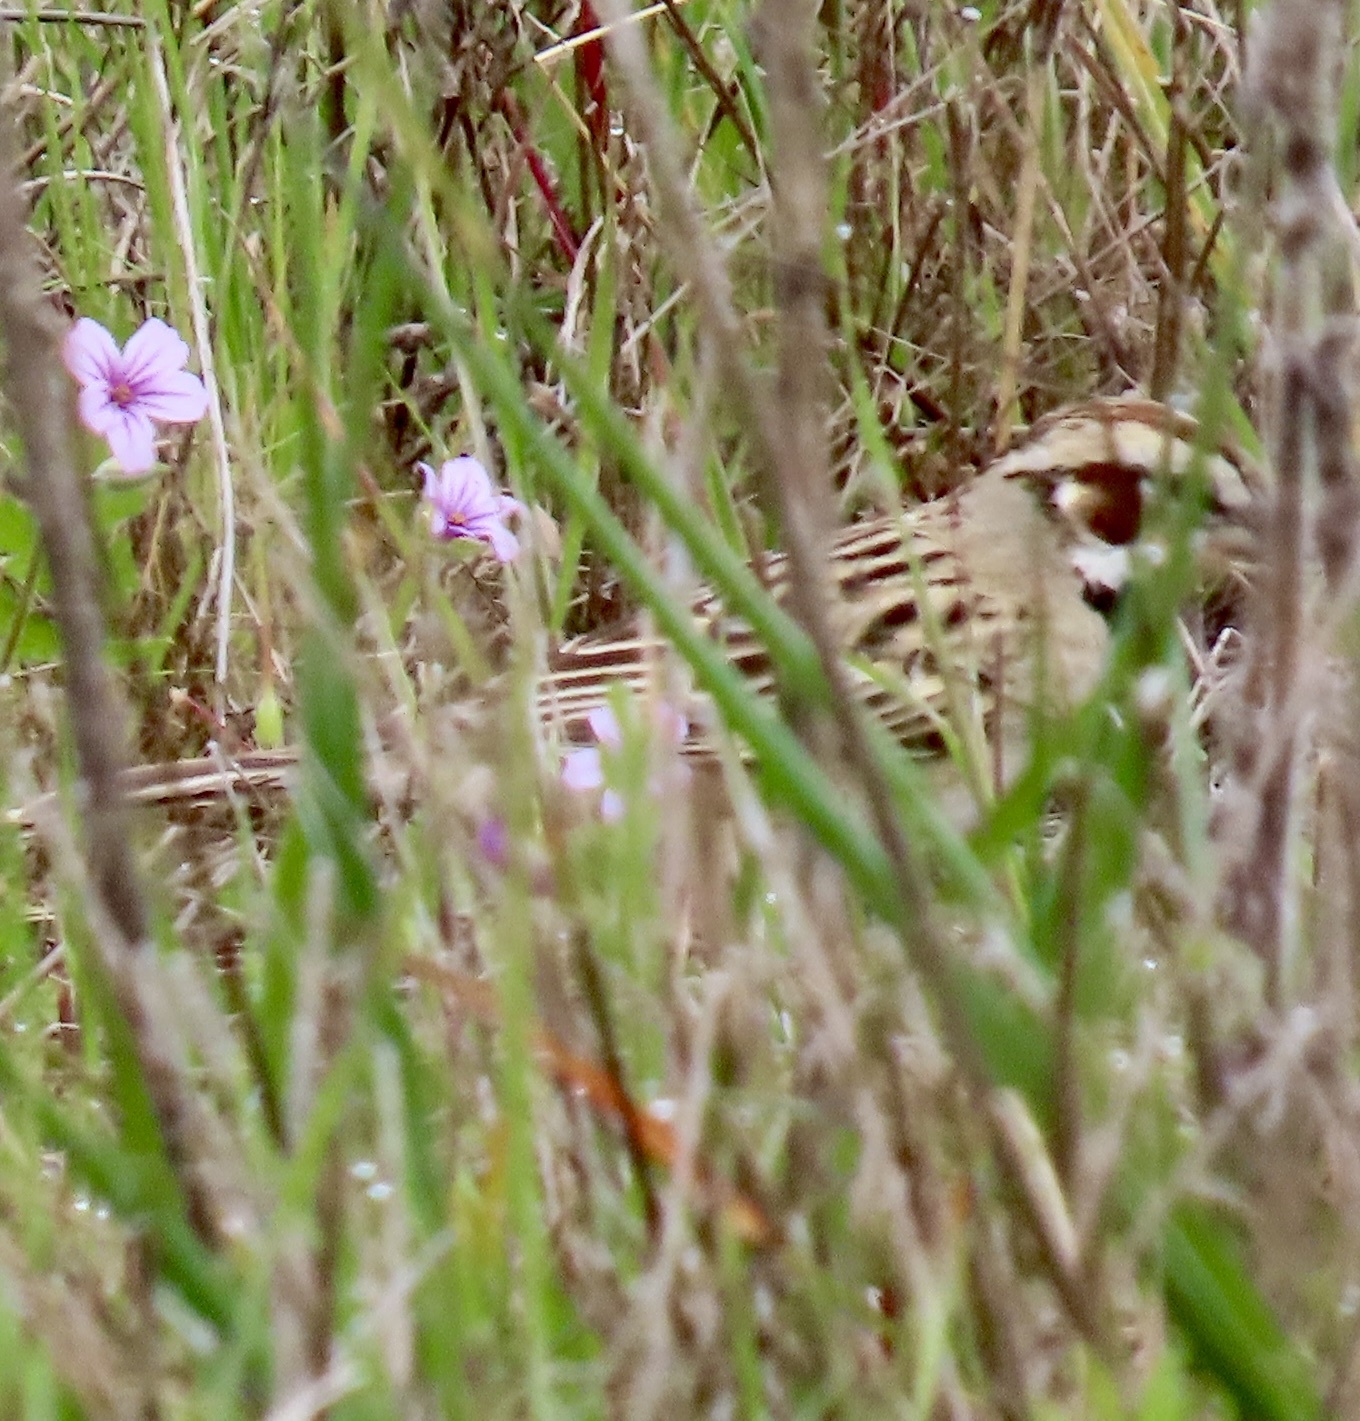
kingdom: Animalia
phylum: Chordata
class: Aves
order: Passeriformes
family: Passerellidae
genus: Chondestes
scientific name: Chondestes grammacus
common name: Lark sparrow
